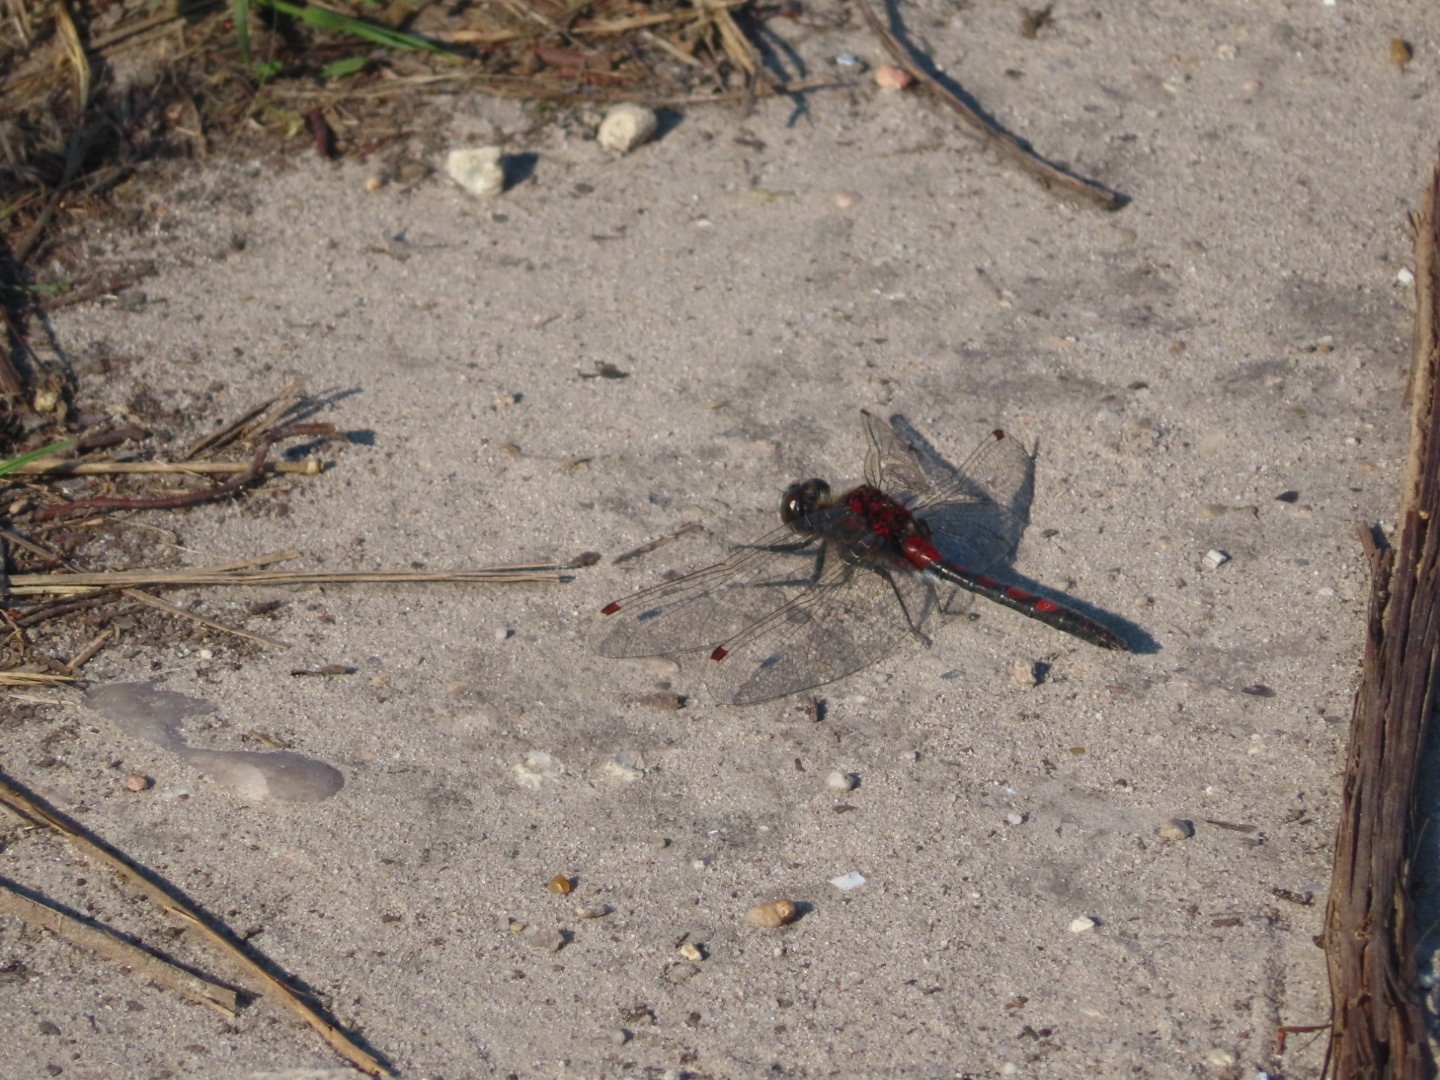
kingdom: Animalia
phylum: Arthropoda
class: Insecta
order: Odonata
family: Libellulidae
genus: Leucorrhinia
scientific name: Leucorrhinia rubicunda
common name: Ruby whiteface
